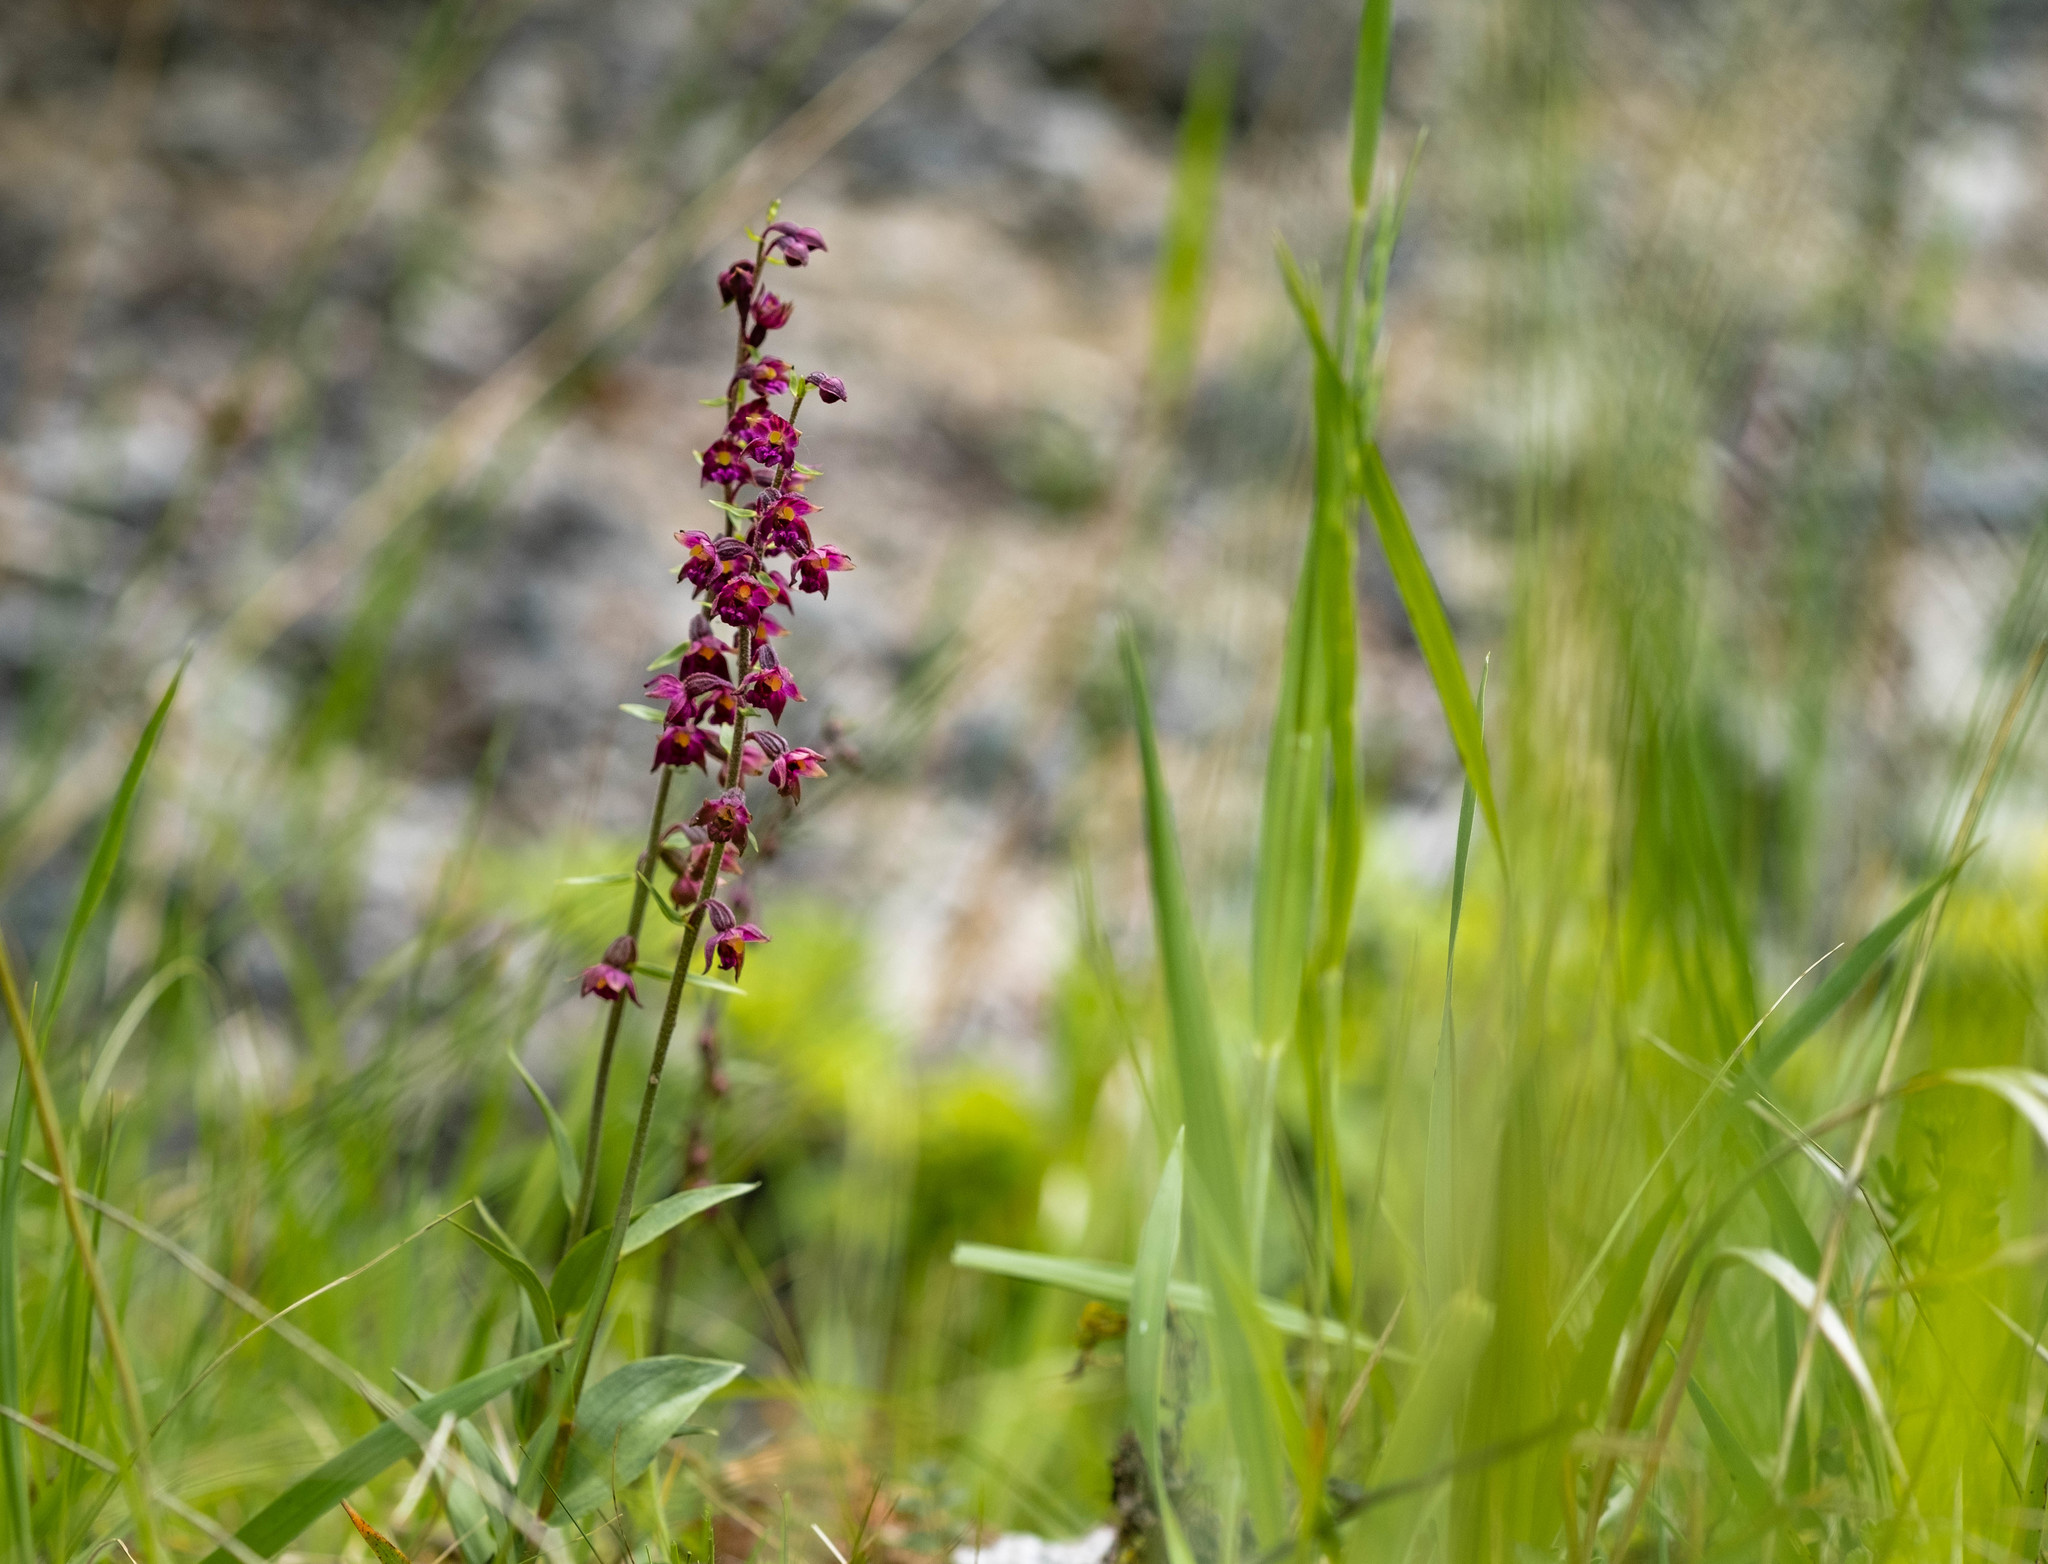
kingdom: Plantae
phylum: Tracheophyta
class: Liliopsida
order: Asparagales
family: Orchidaceae
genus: Epipactis
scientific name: Epipactis atrorubens
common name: Dark-red helleborine
